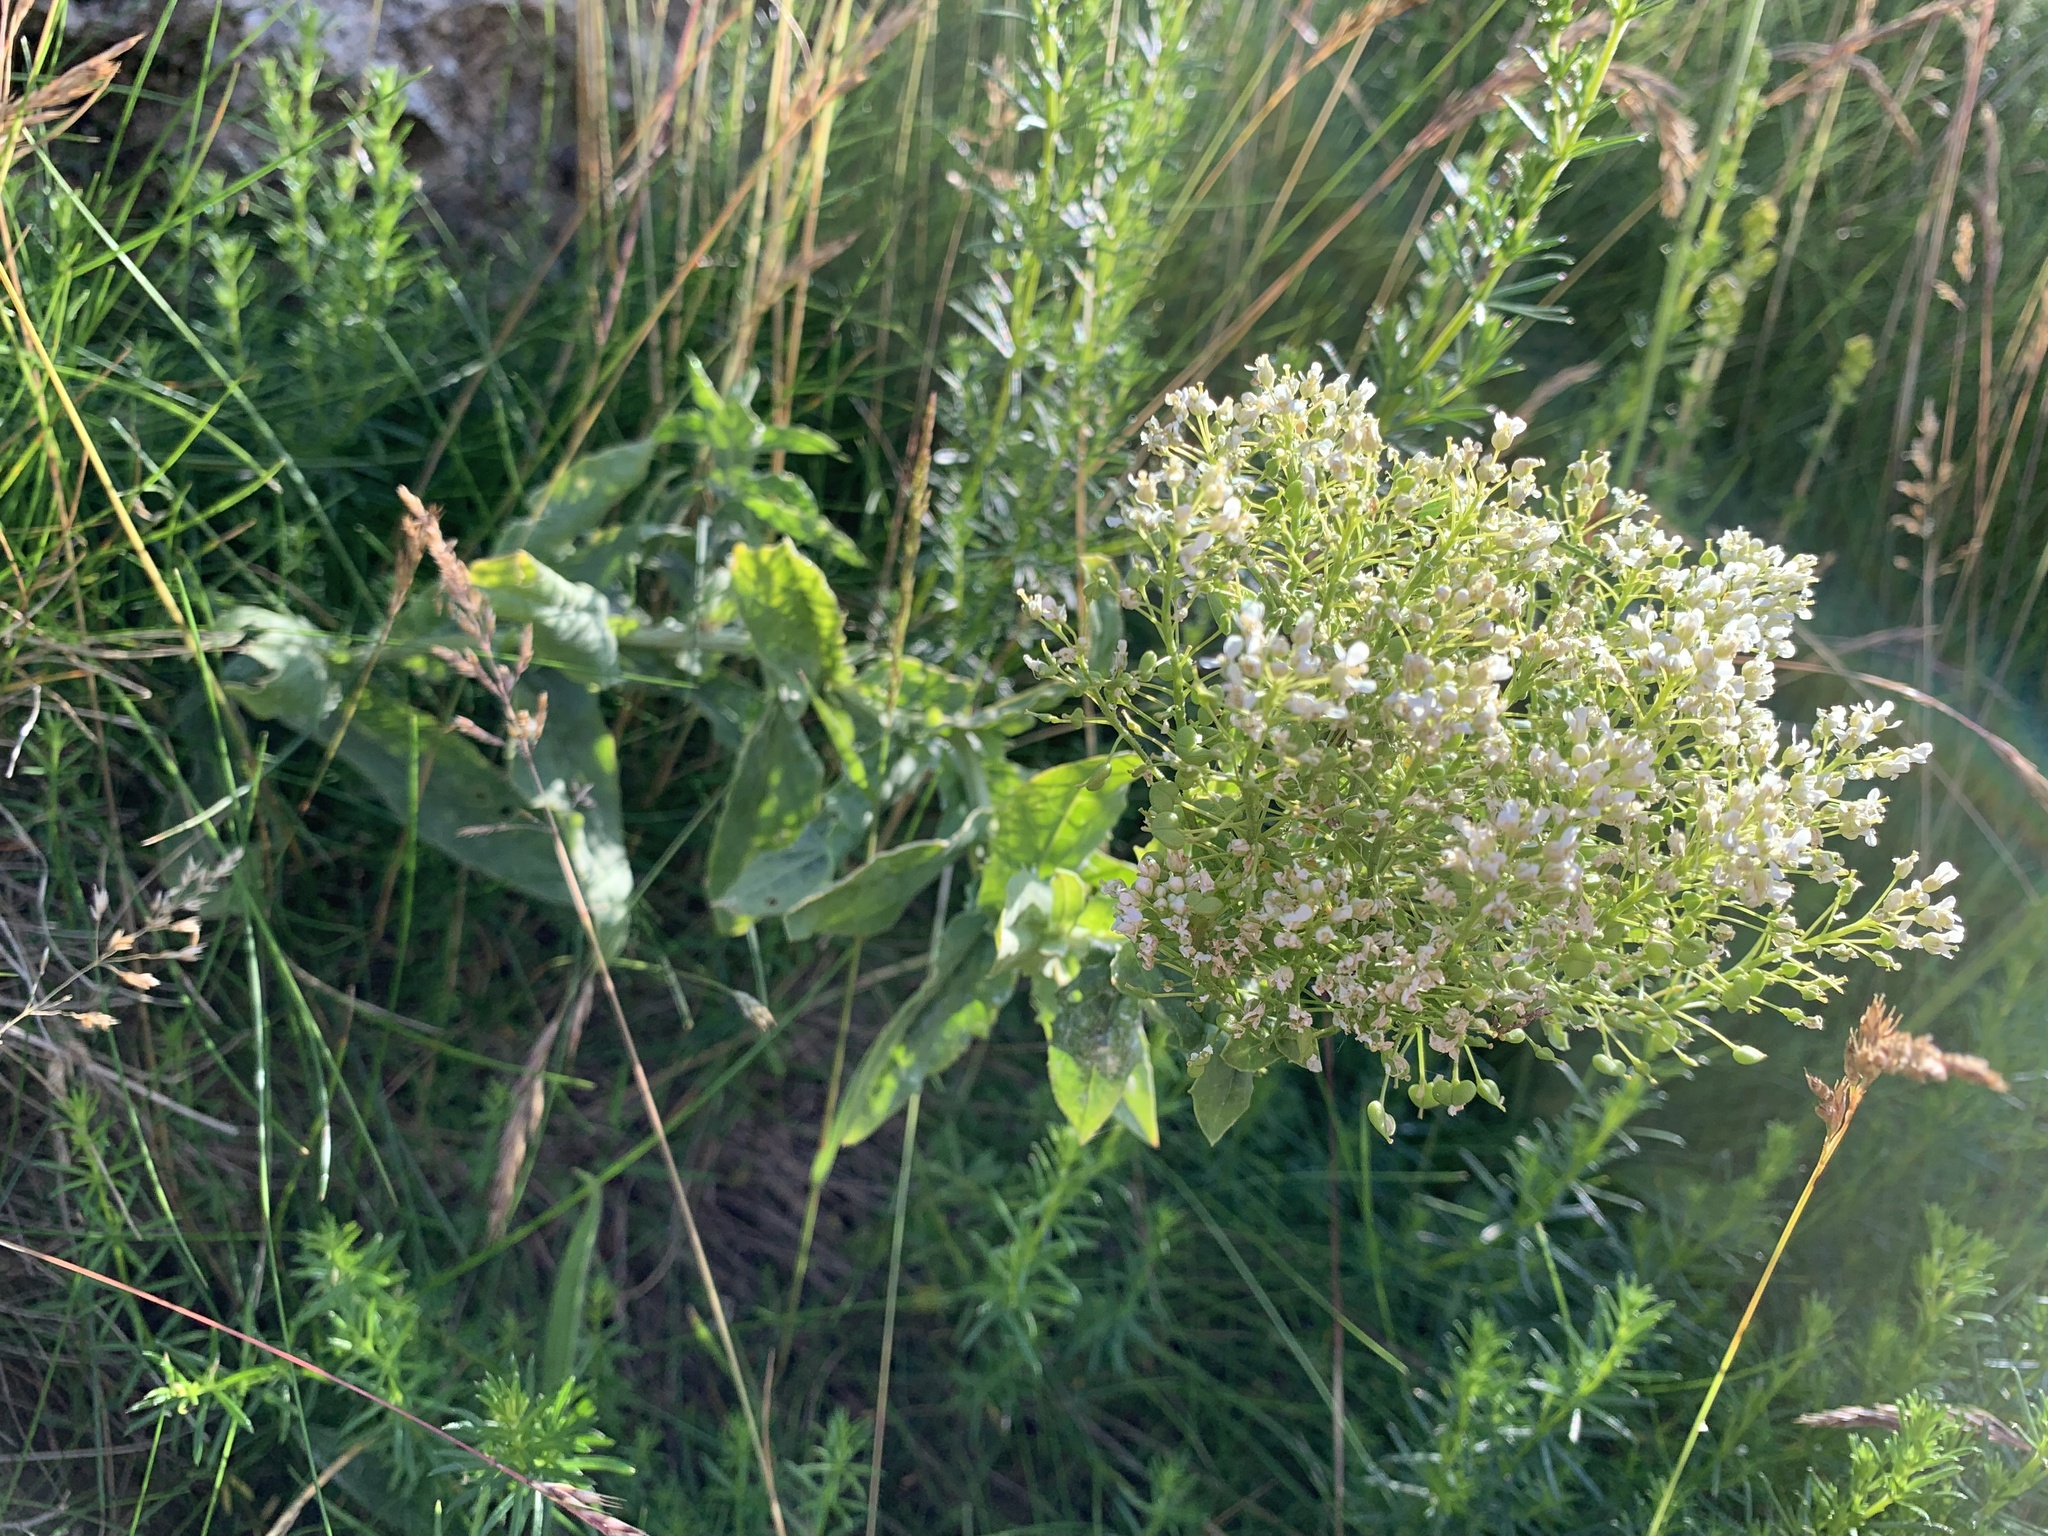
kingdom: Plantae
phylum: Tracheophyta
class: Magnoliopsida
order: Brassicales
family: Brassicaceae
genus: Lepidium
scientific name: Lepidium draba
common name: Hoary cress
